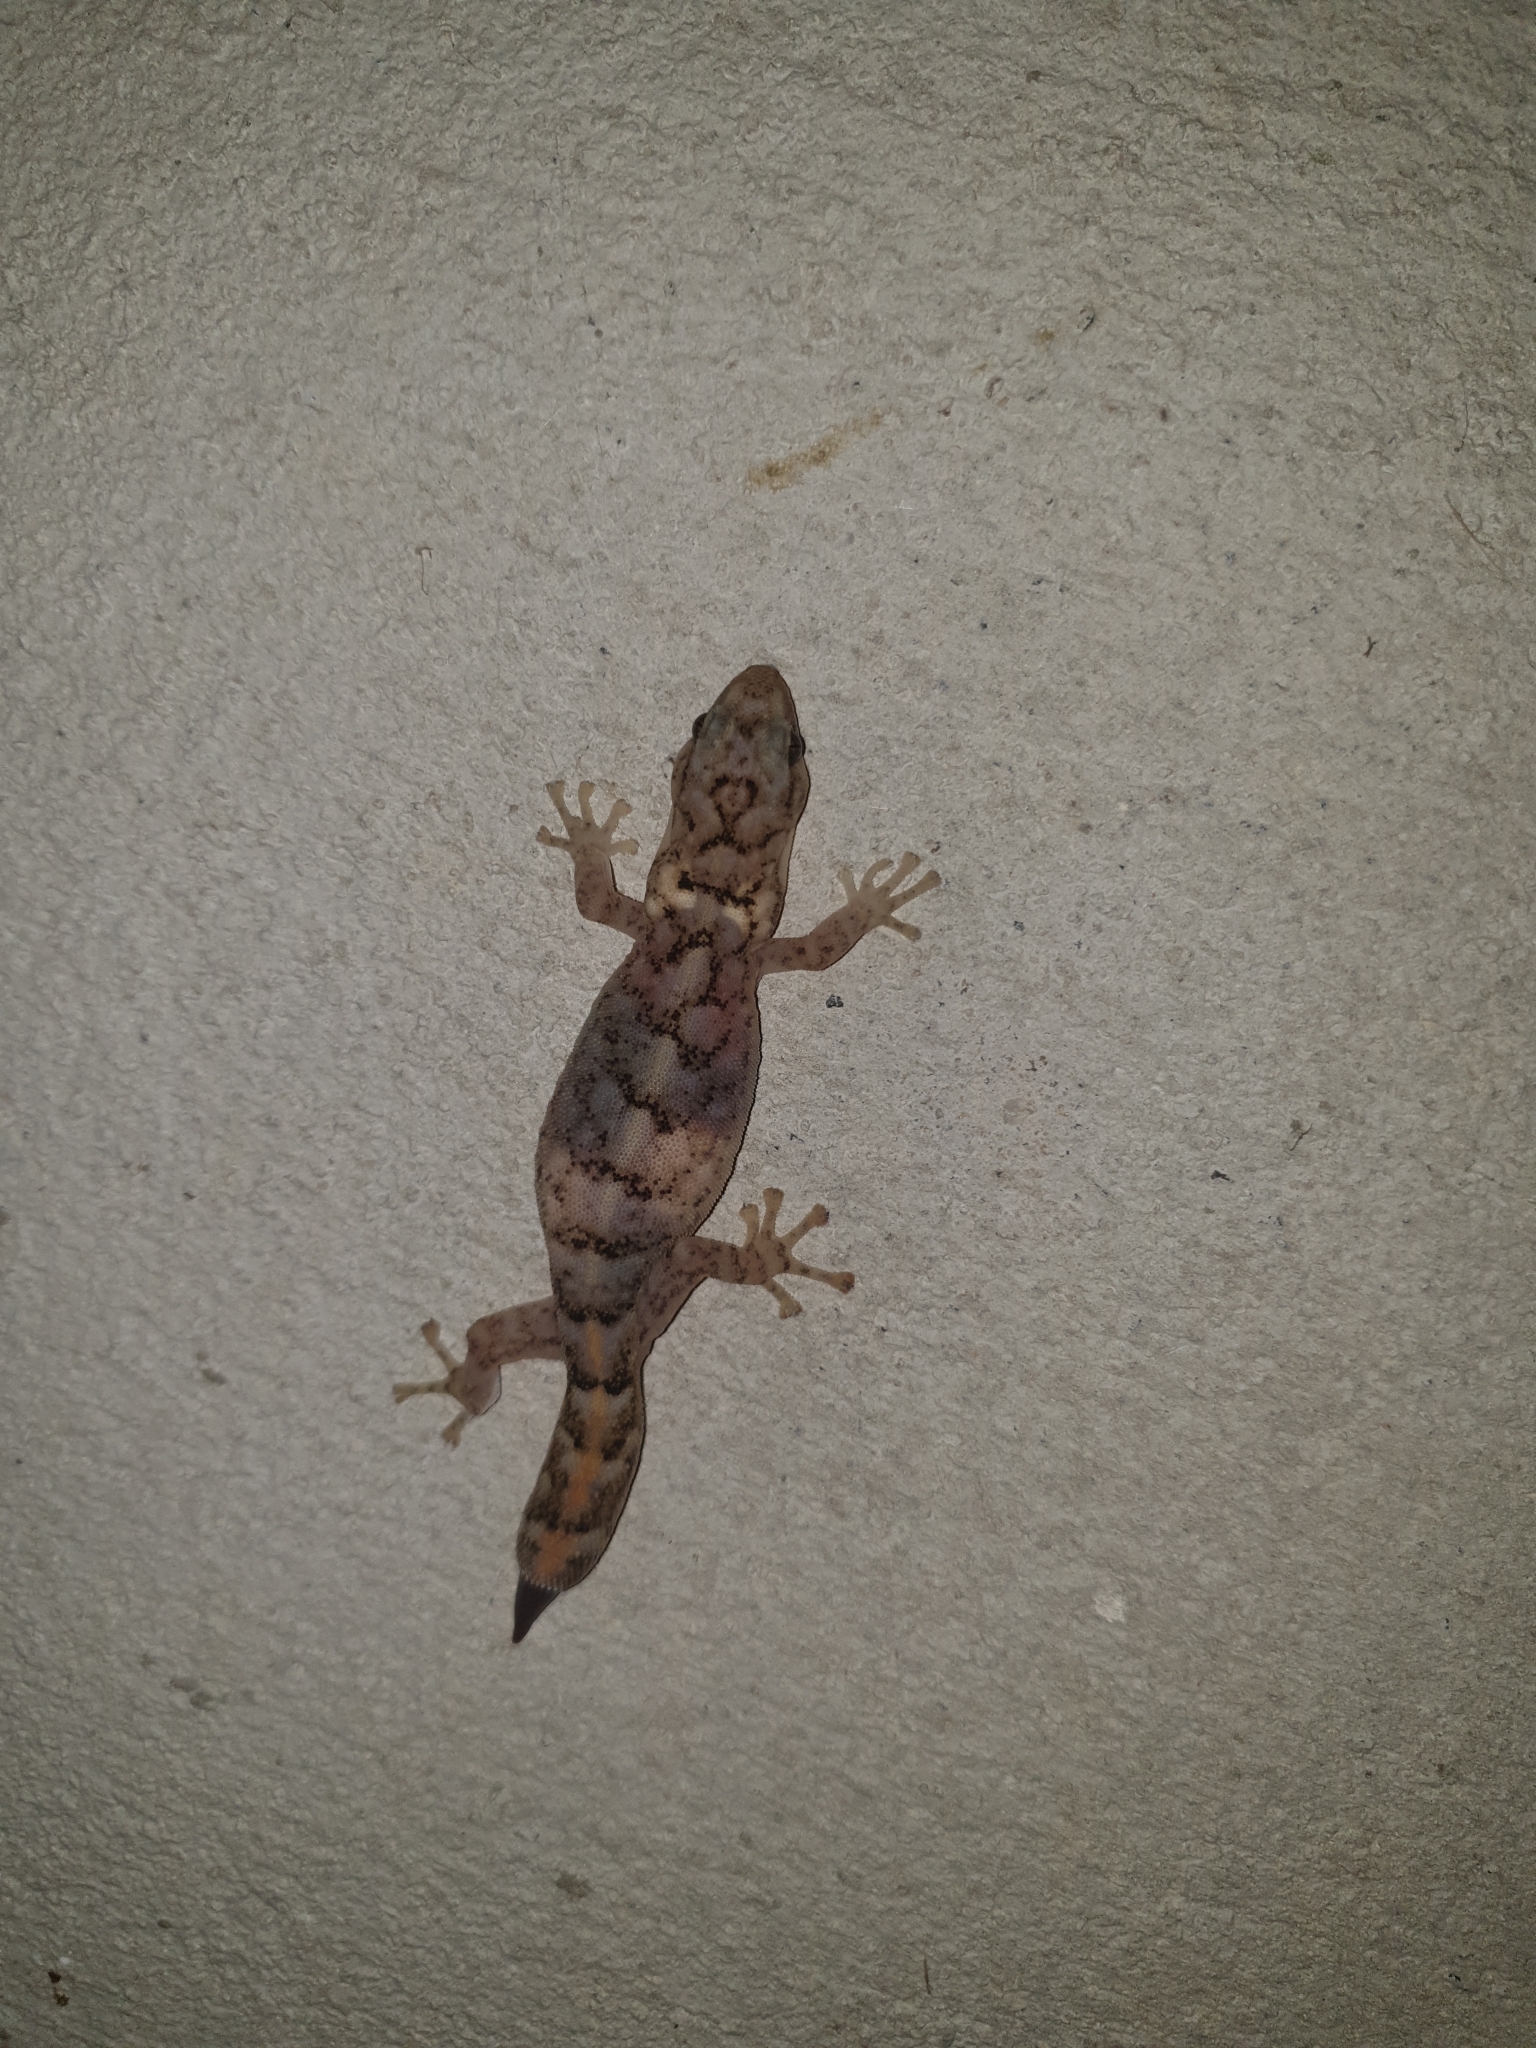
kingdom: Animalia
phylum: Chordata
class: Squamata
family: Gekkonidae
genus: Christinus
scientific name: Christinus marmoratus
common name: Marbled gecko
